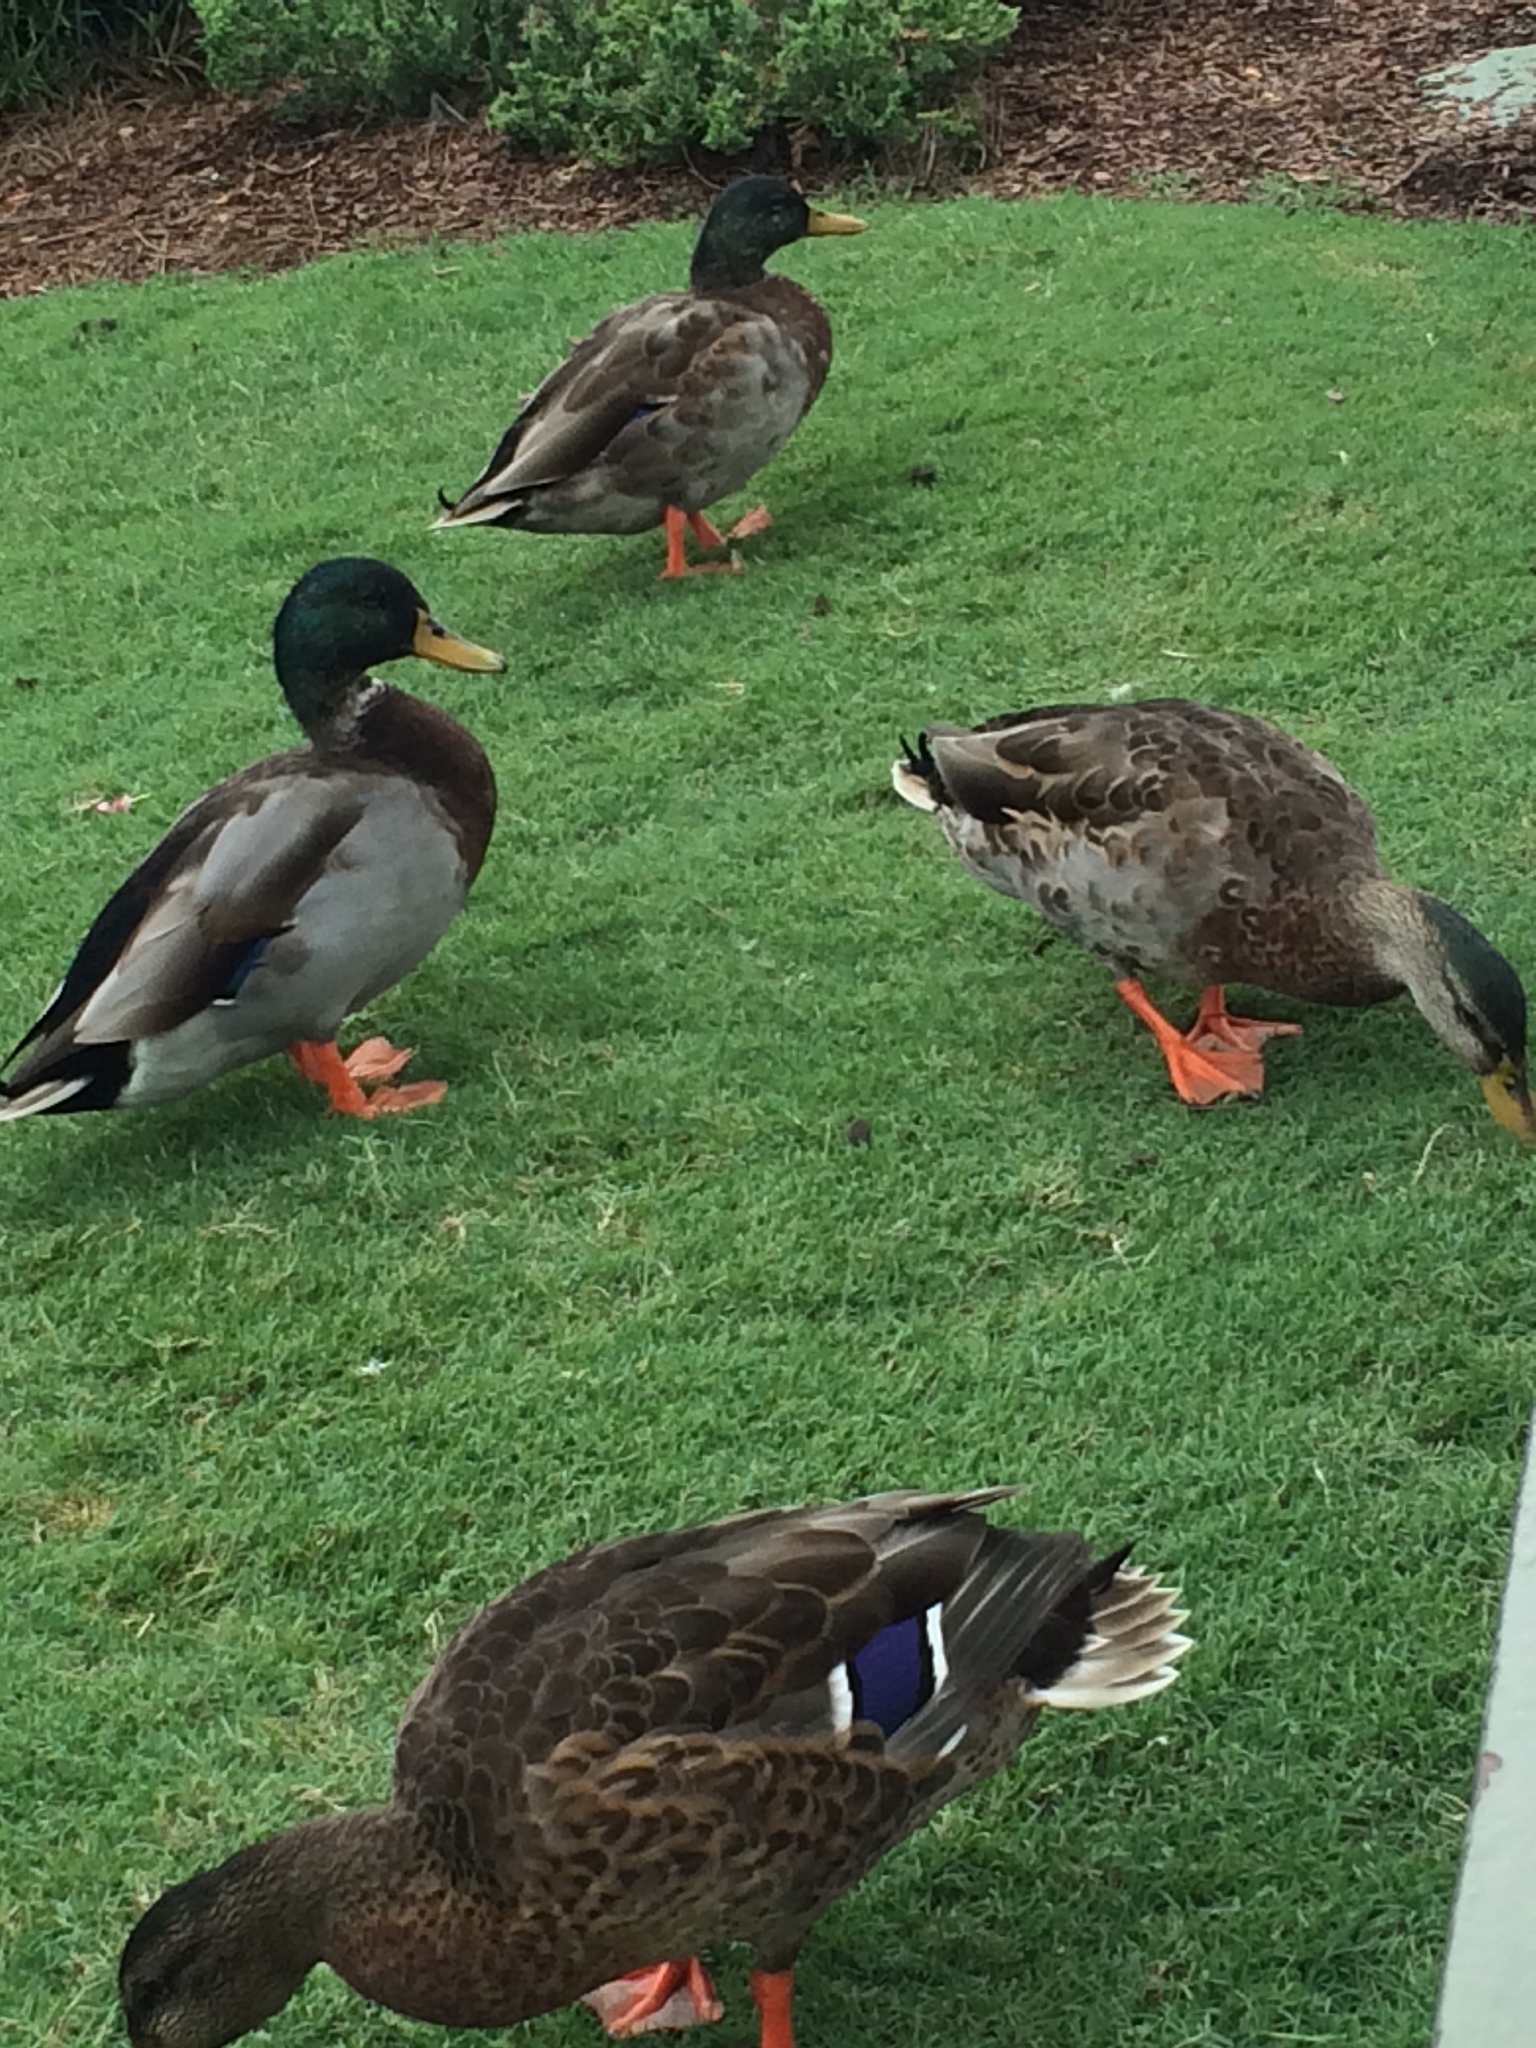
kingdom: Animalia
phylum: Chordata
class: Aves
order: Anseriformes
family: Anatidae
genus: Anas
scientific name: Anas platyrhynchos
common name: Mallard
